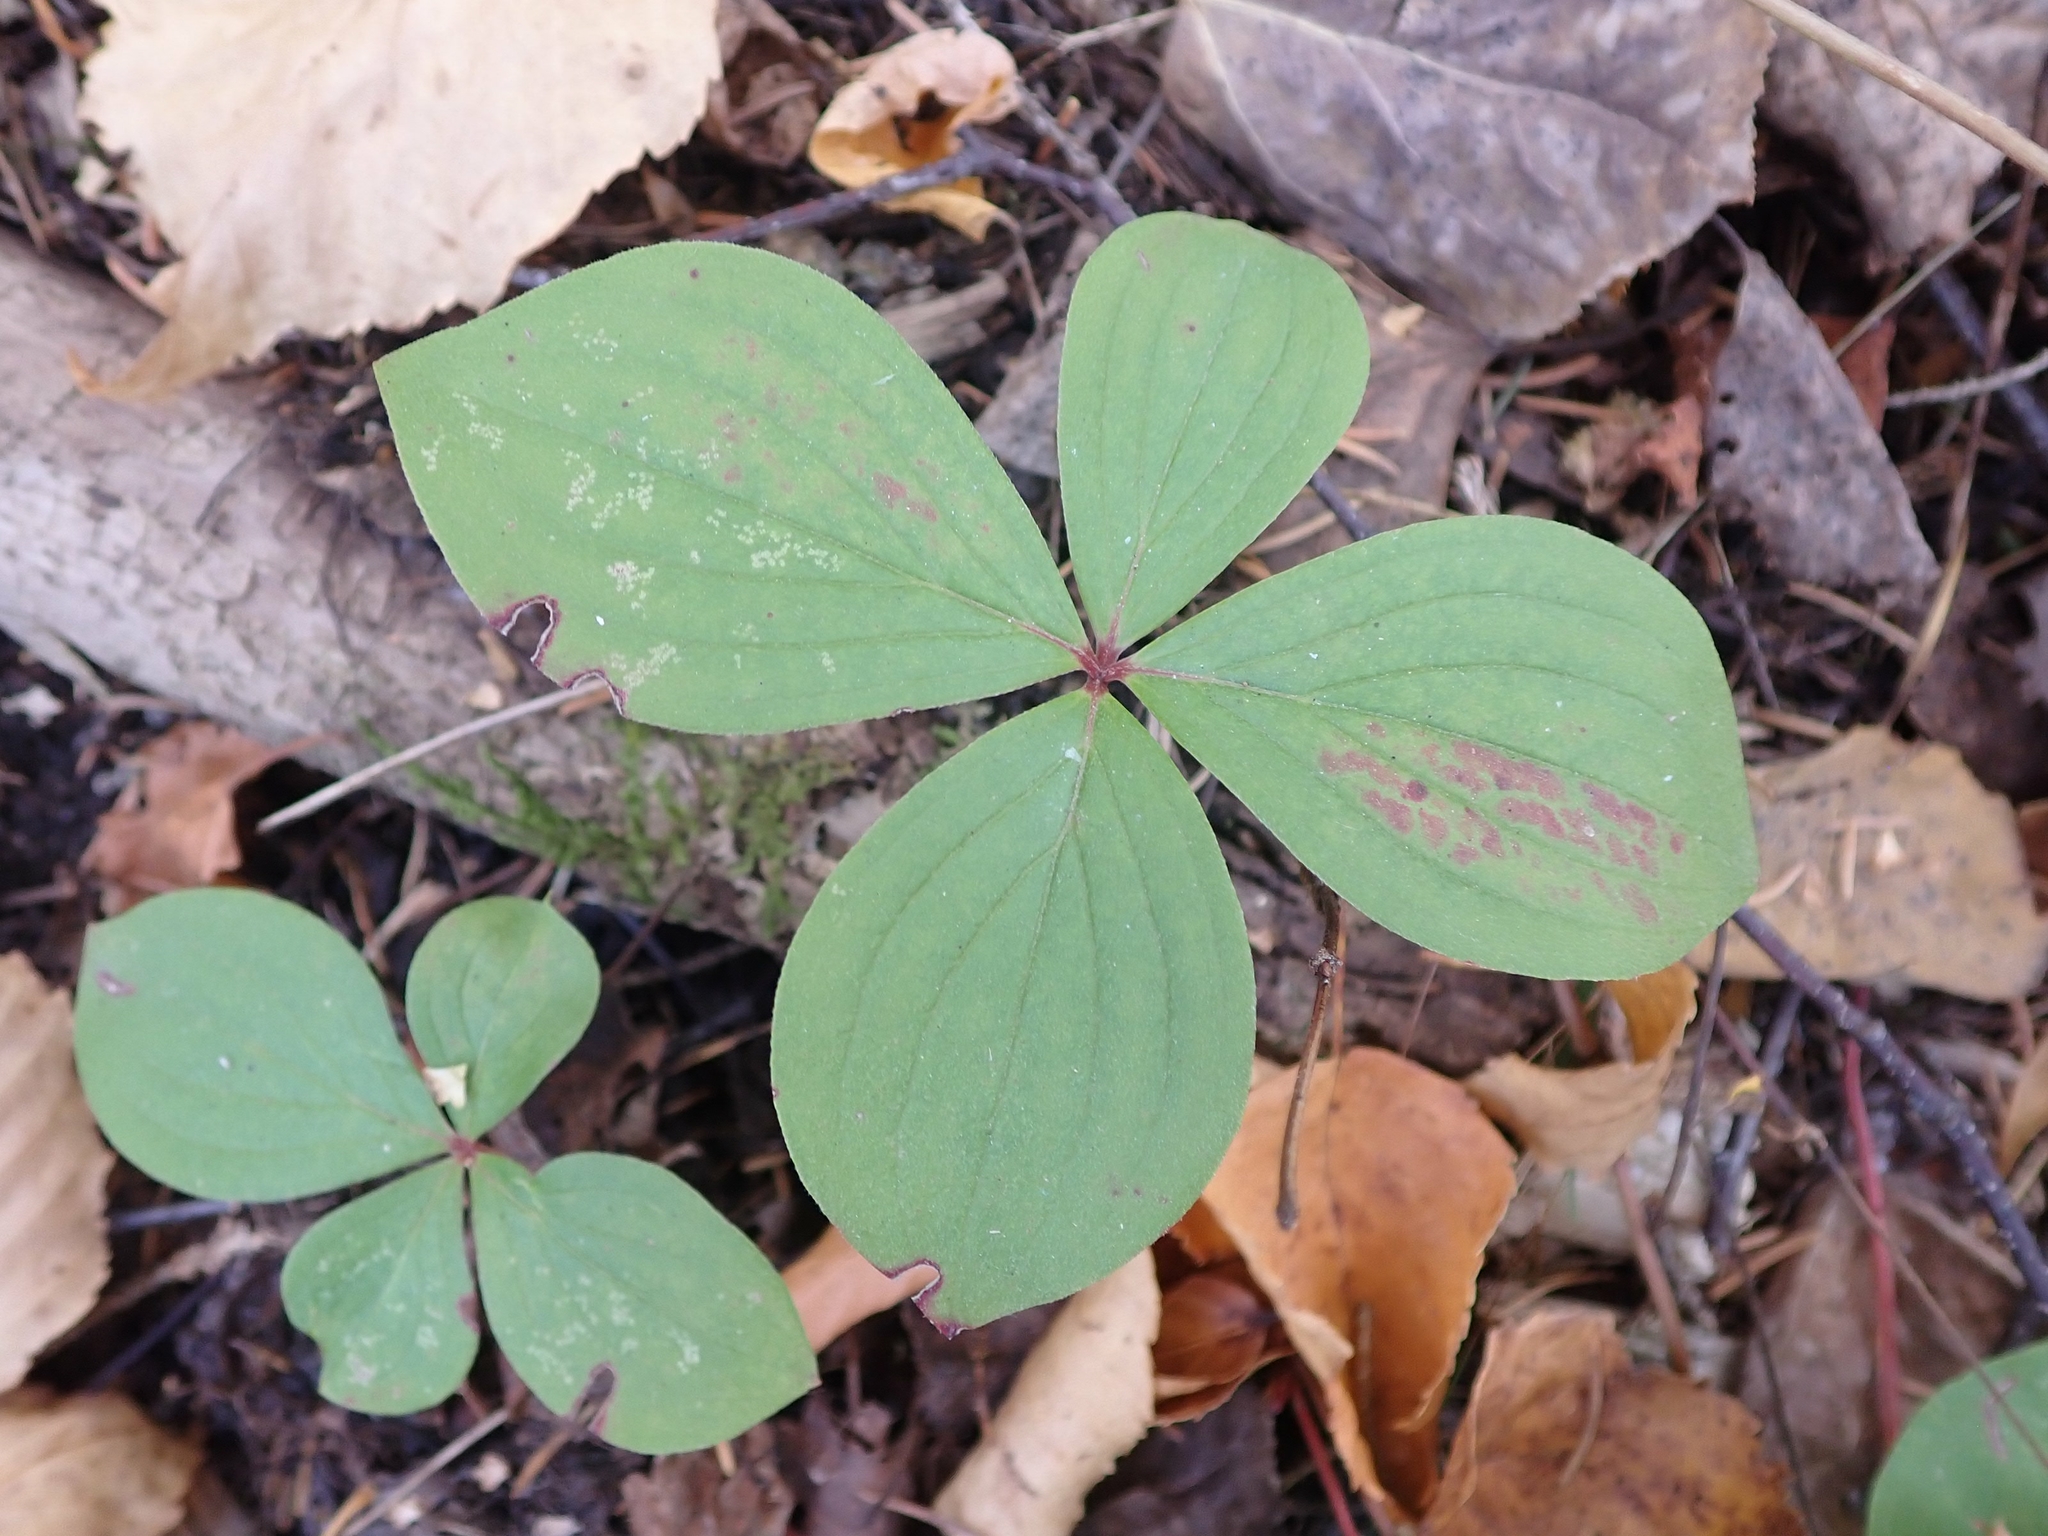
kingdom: Plantae
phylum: Tracheophyta
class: Magnoliopsida
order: Cornales
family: Cornaceae
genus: Cornus
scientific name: Cornus canadensis
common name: Creeping dogwood
